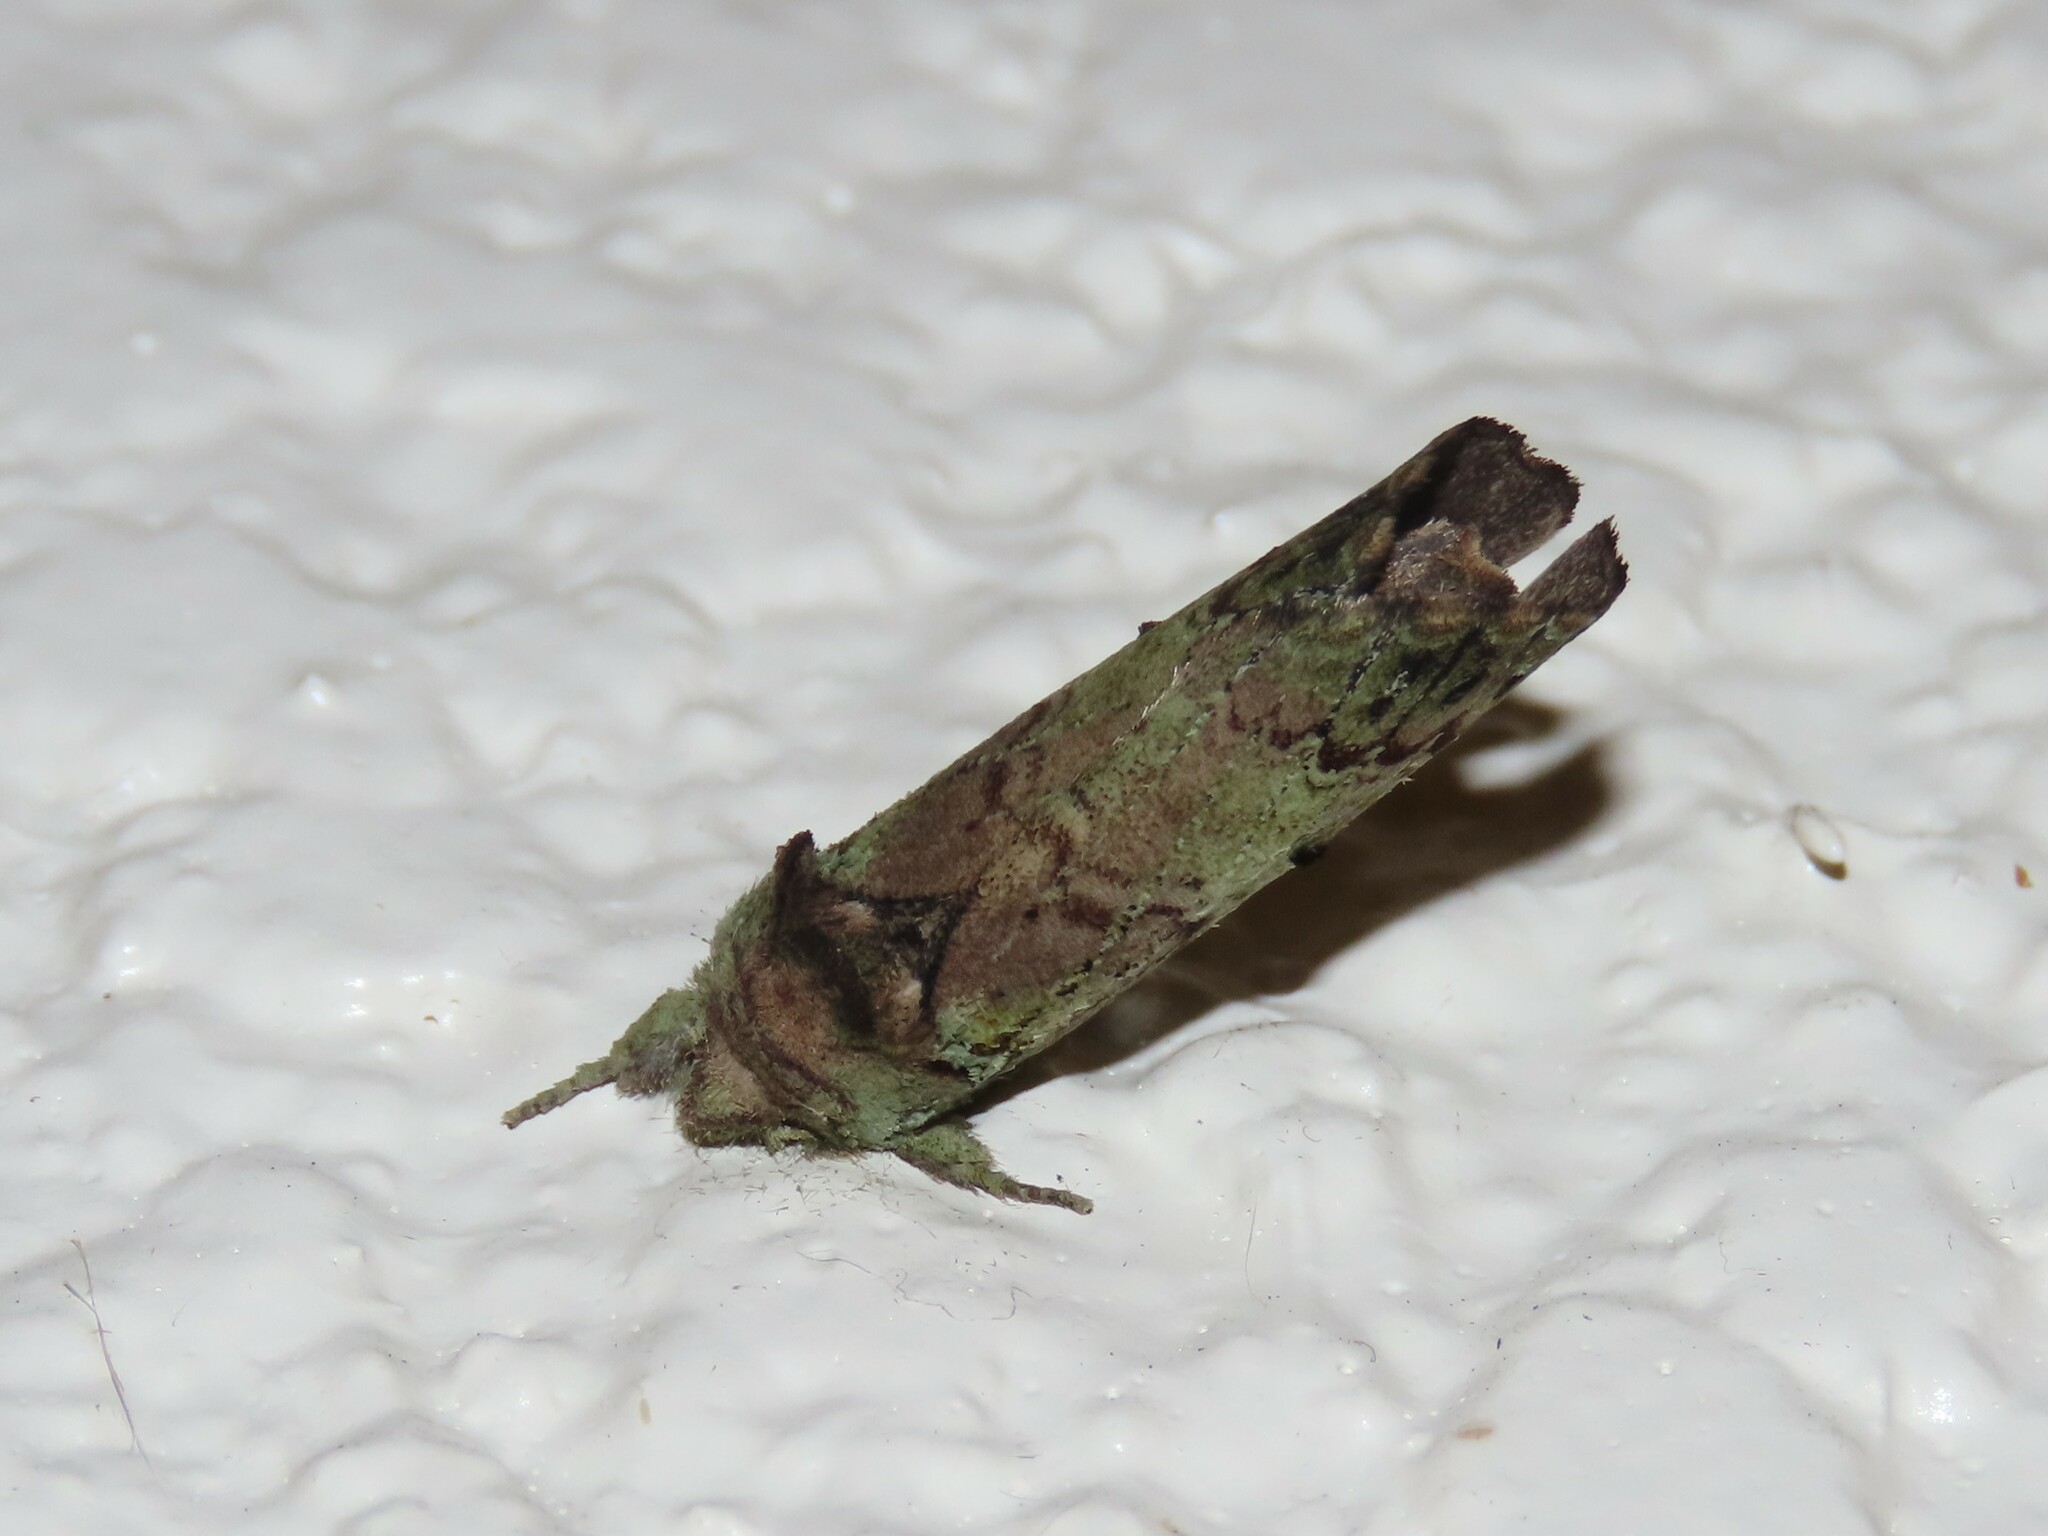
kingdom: Animalia
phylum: Arthropoda
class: Insecta
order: Lepidoptera
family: Notodontidae
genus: Schizura
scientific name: Schizura
